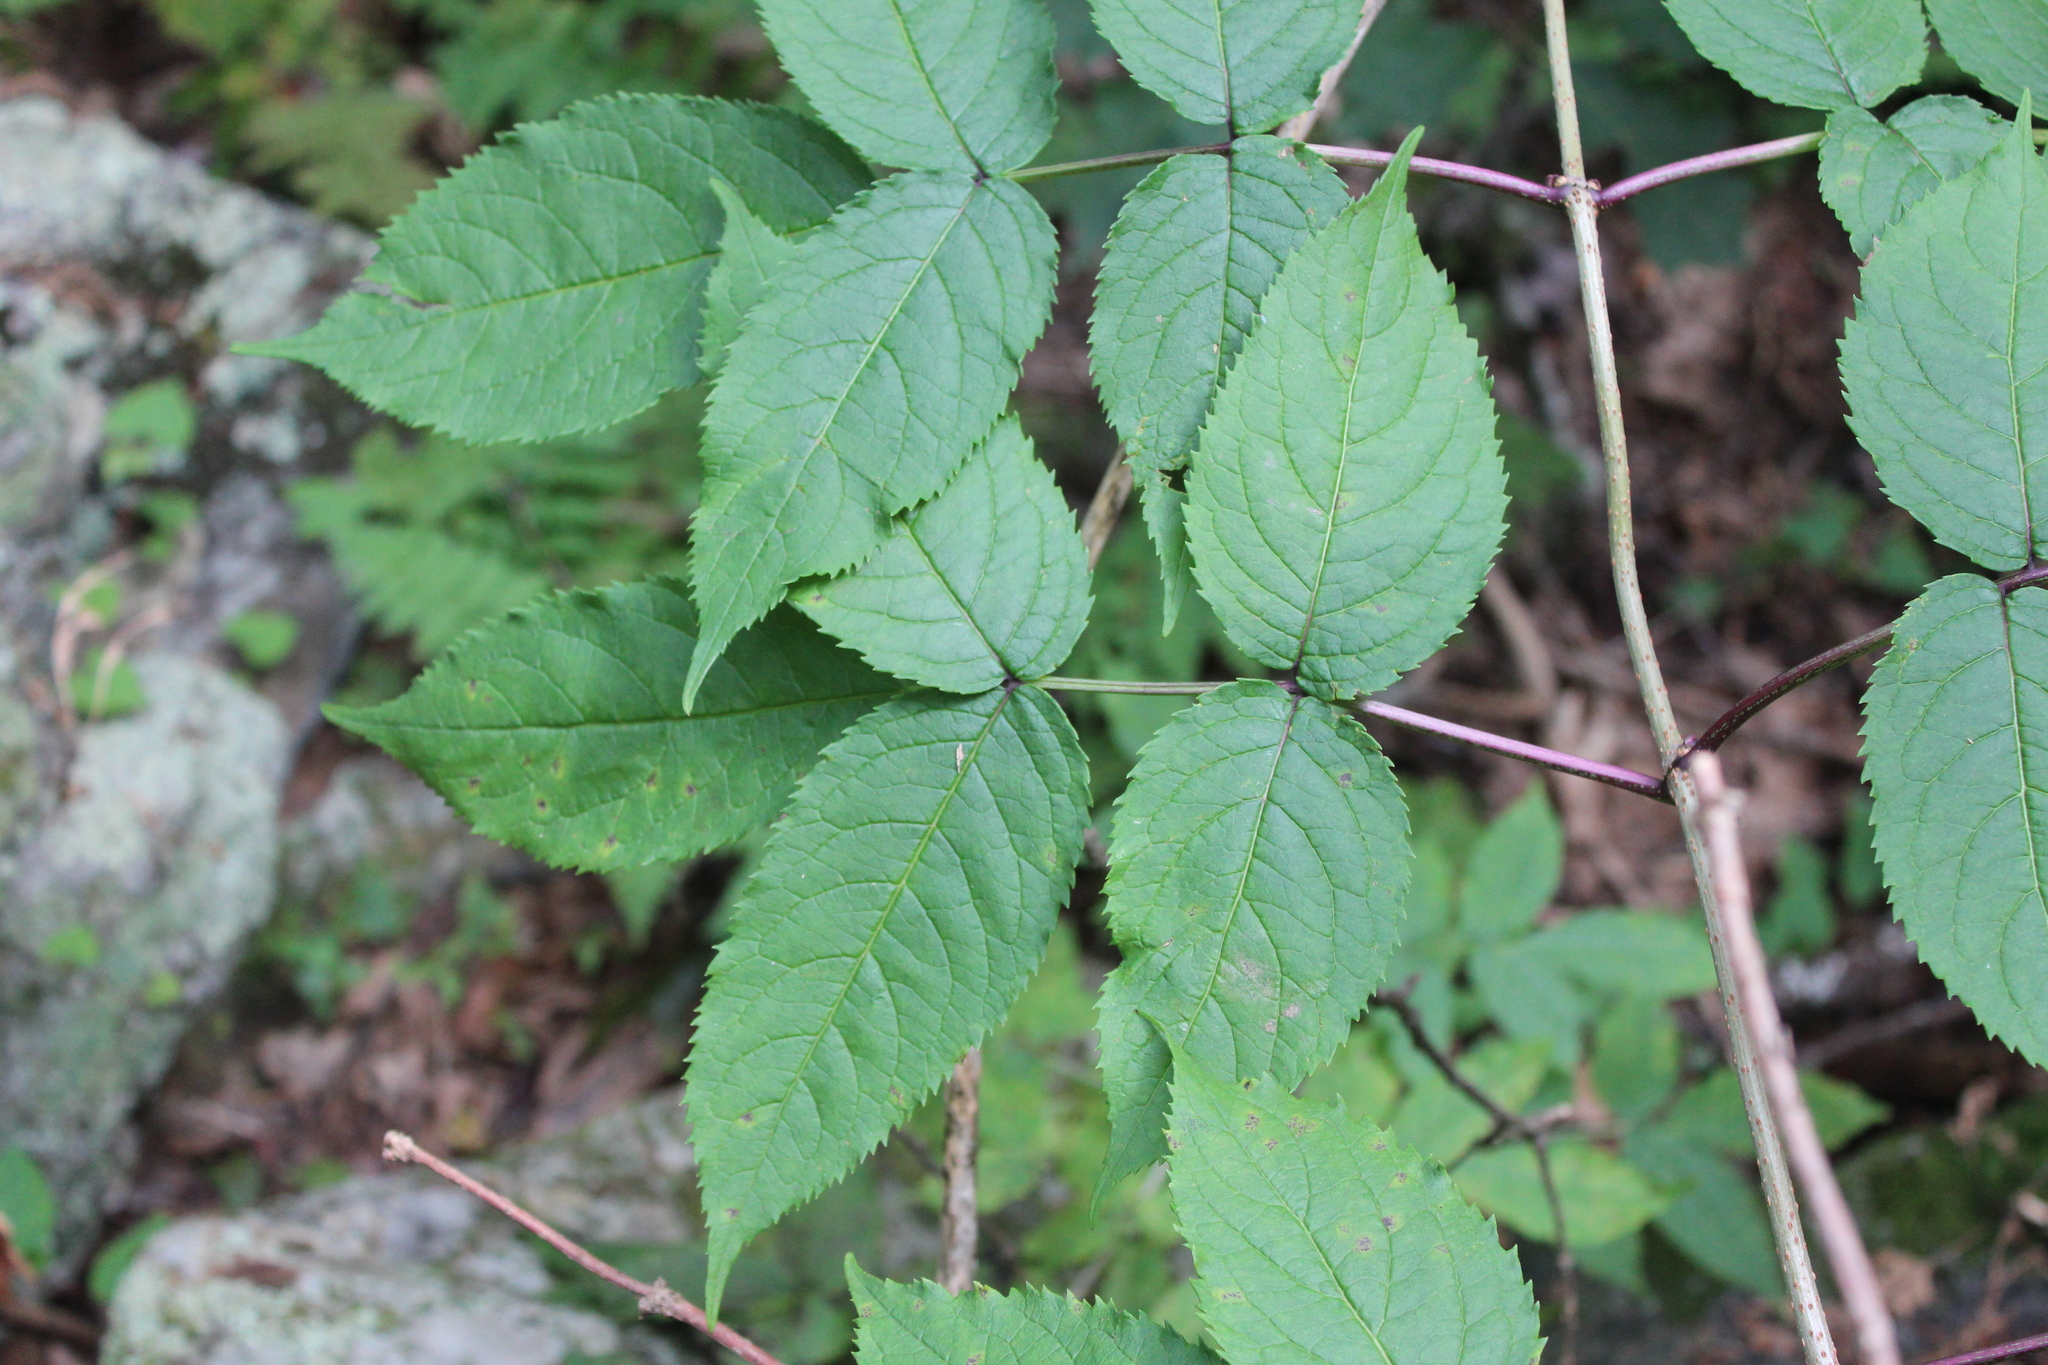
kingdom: Plantae
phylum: Tracheophyta
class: Magnoliopsida
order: Dipsacales
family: Viburnaceae
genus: Sambucus
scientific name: Sambucus racemosa
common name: Red-berried elder
